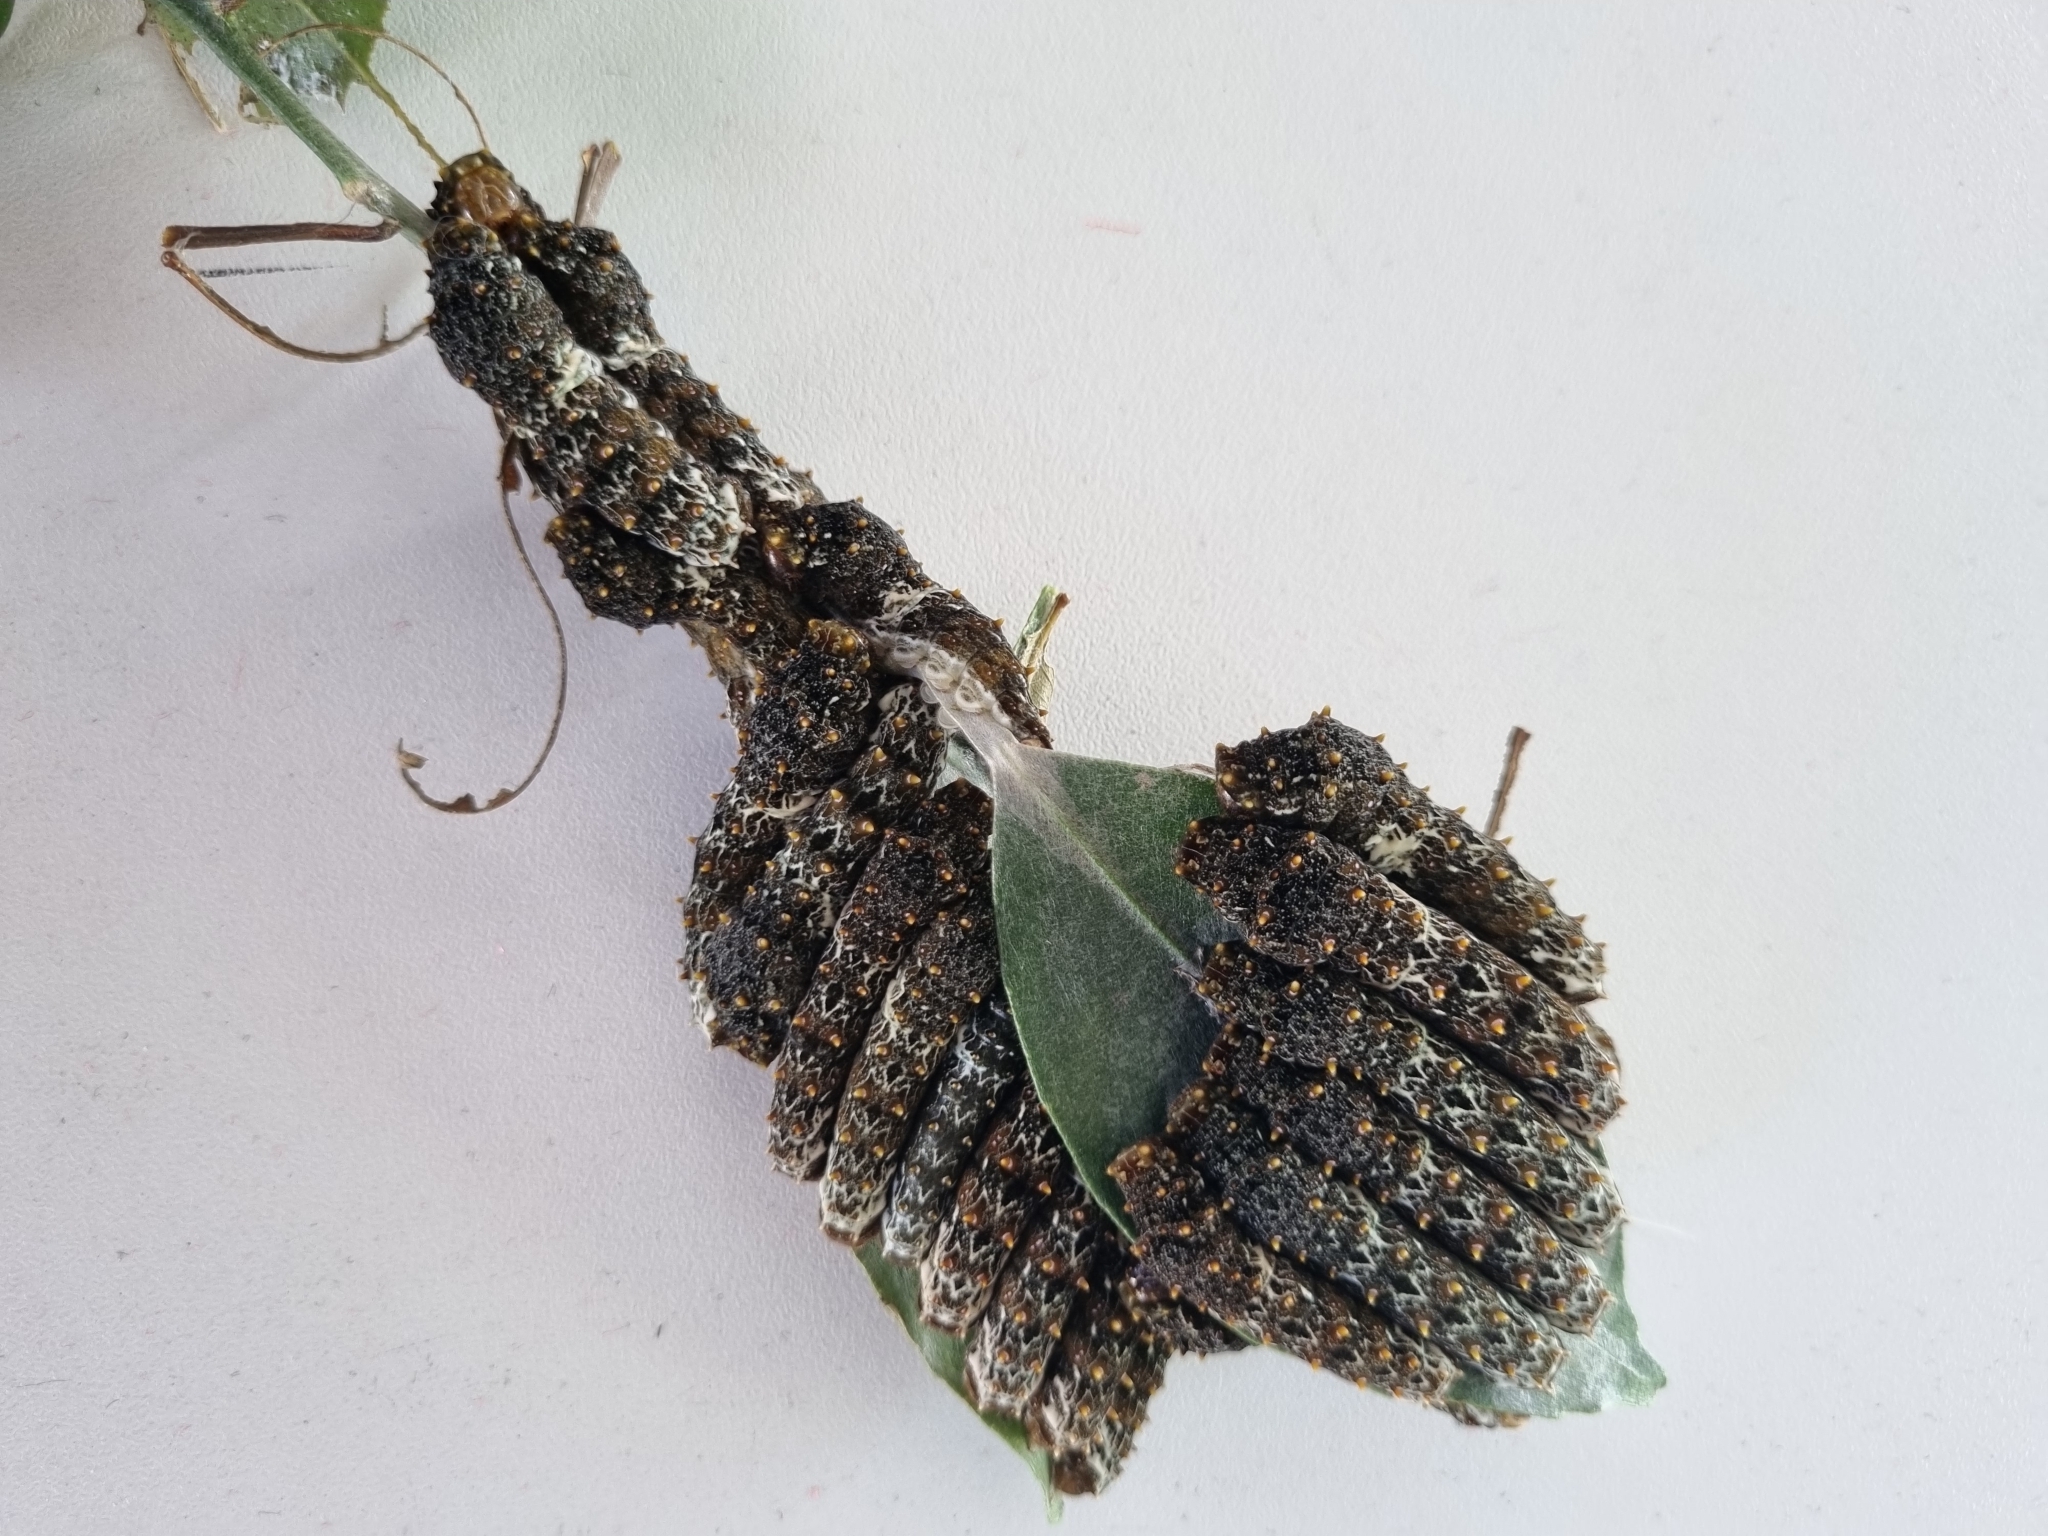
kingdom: Animalia
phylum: Arthropoda
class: Insecta
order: Lepidoptera
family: Papilionidae
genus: Papilio
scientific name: Papilio anchisiades
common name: Idaes swallowtail
